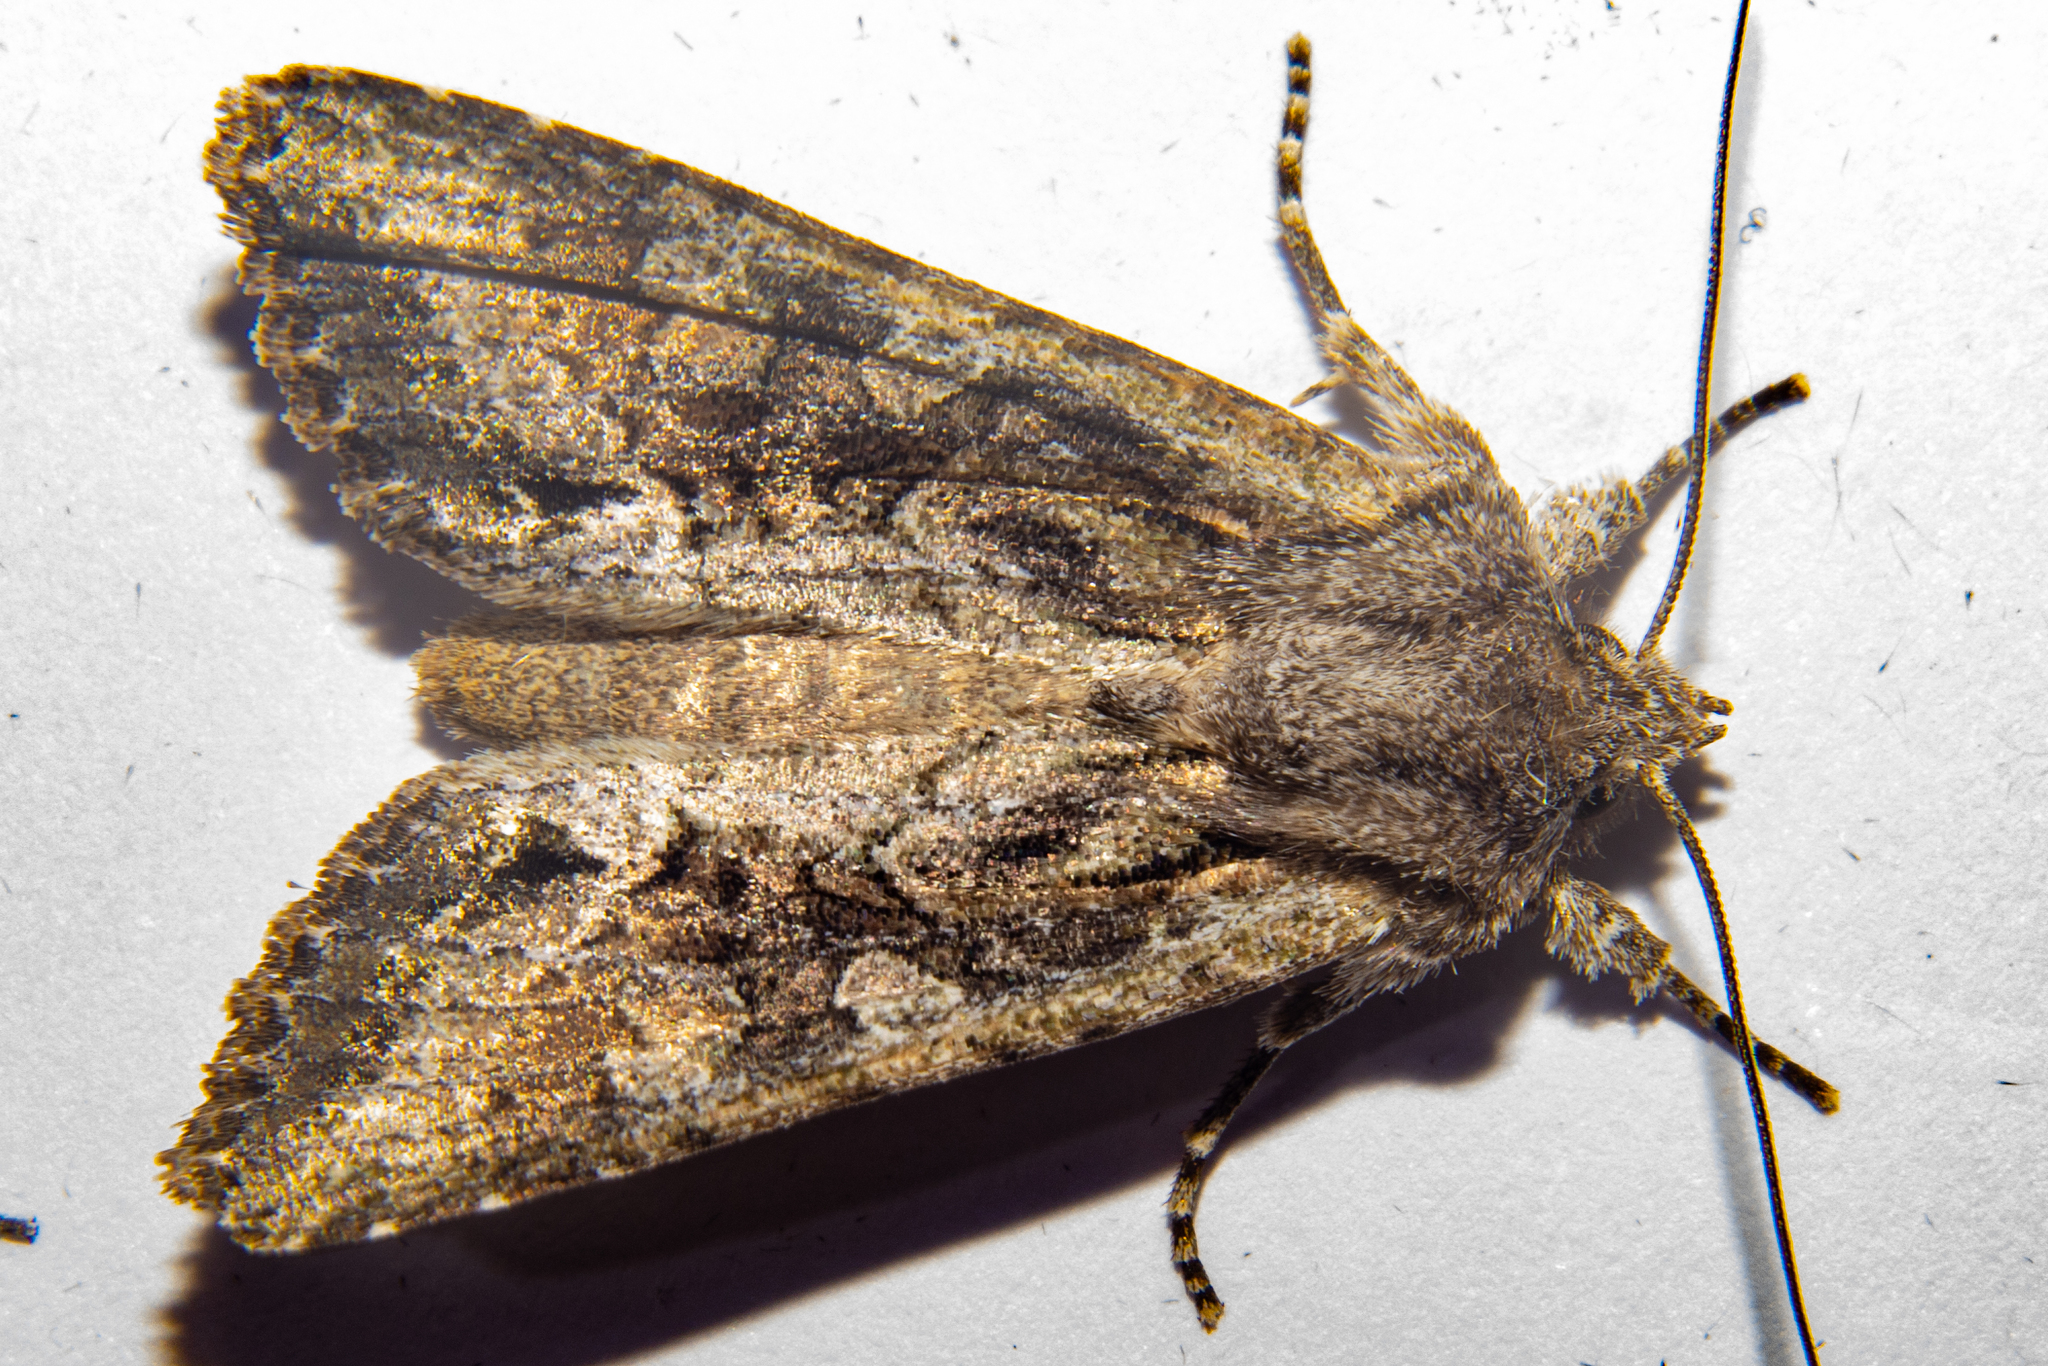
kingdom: Animalia
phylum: Arthropoda
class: Insecta
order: Lepidoptera
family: Noctuidae
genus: Ichneutica
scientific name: Ichneutica mutans
